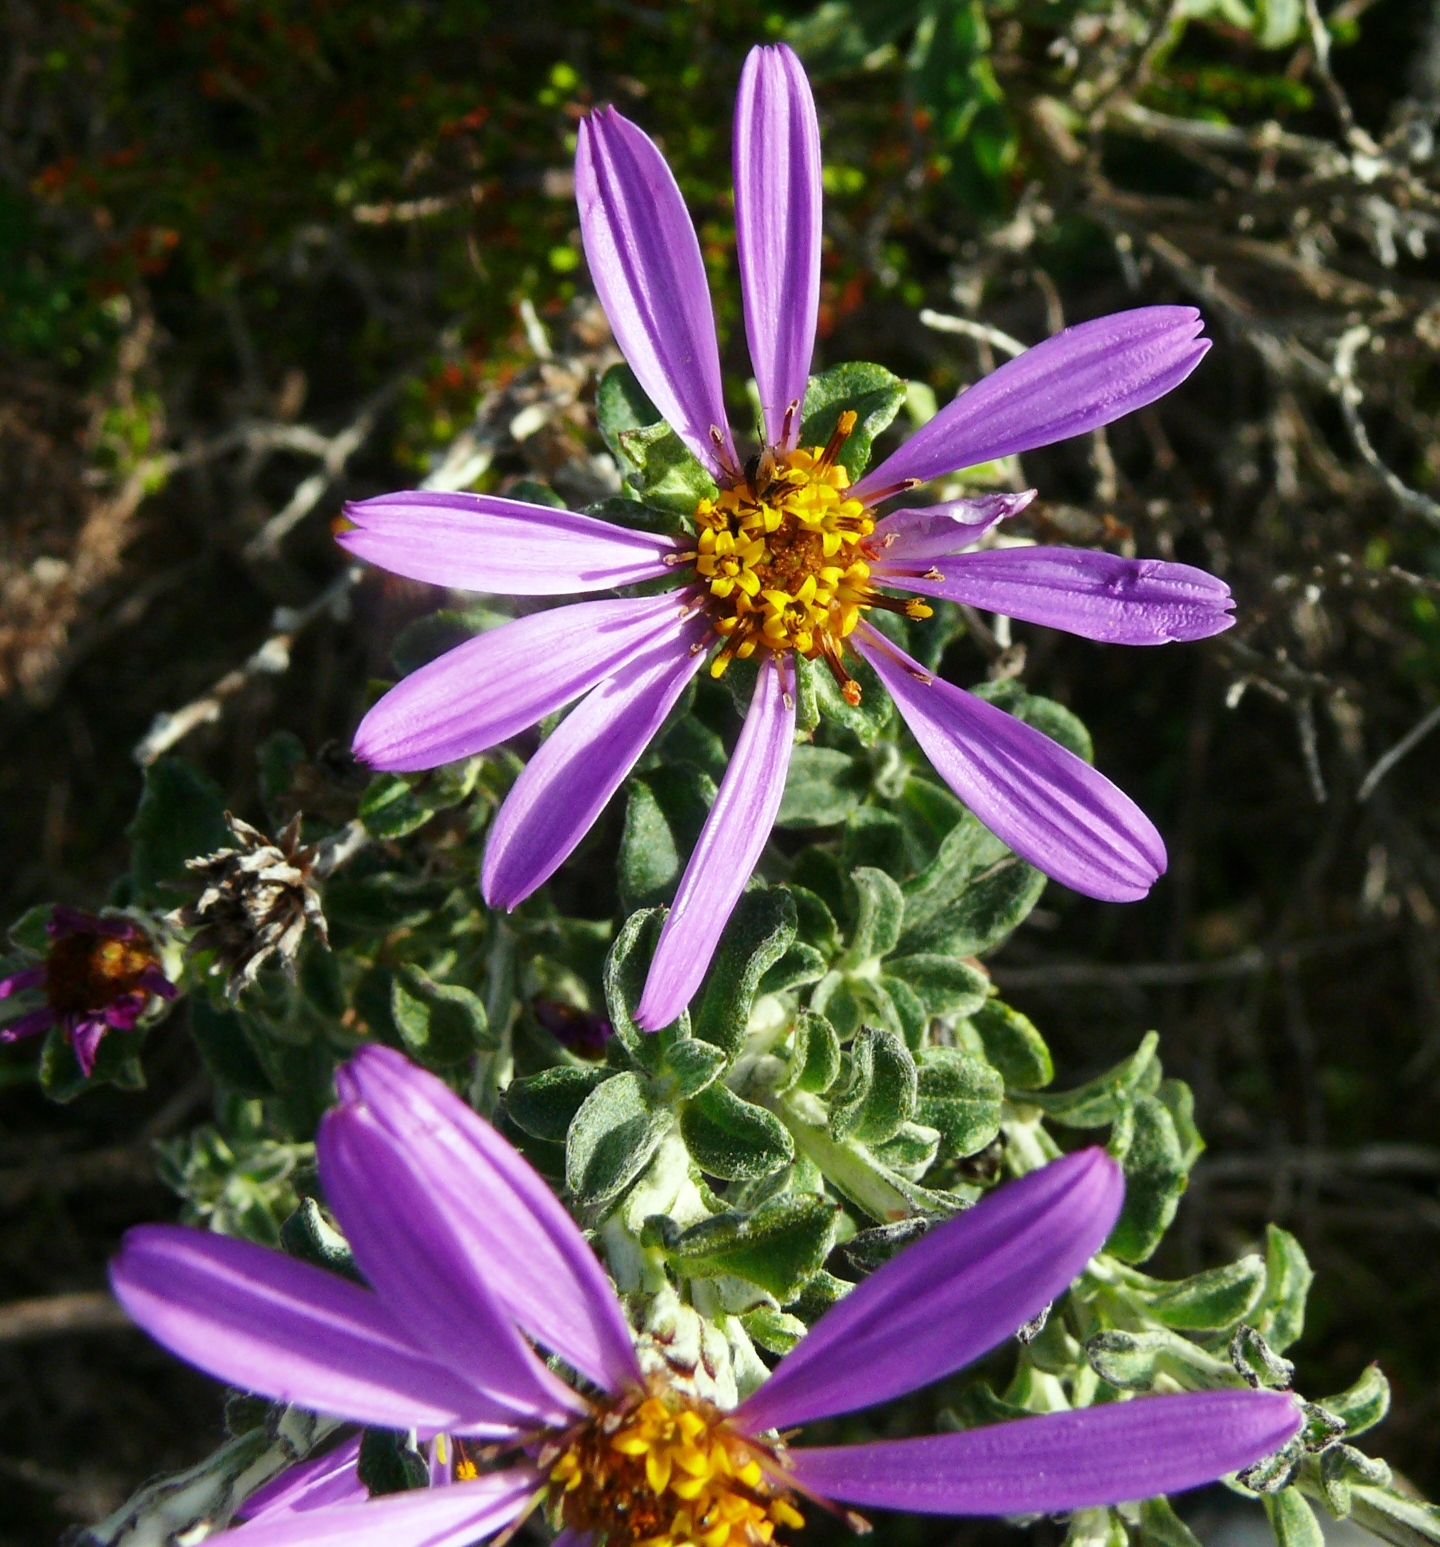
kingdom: Plantae
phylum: Tracheophyta
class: Magnoliopsida
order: Asterales
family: Asteraceae
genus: Printzia
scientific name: Printzia polifolia
